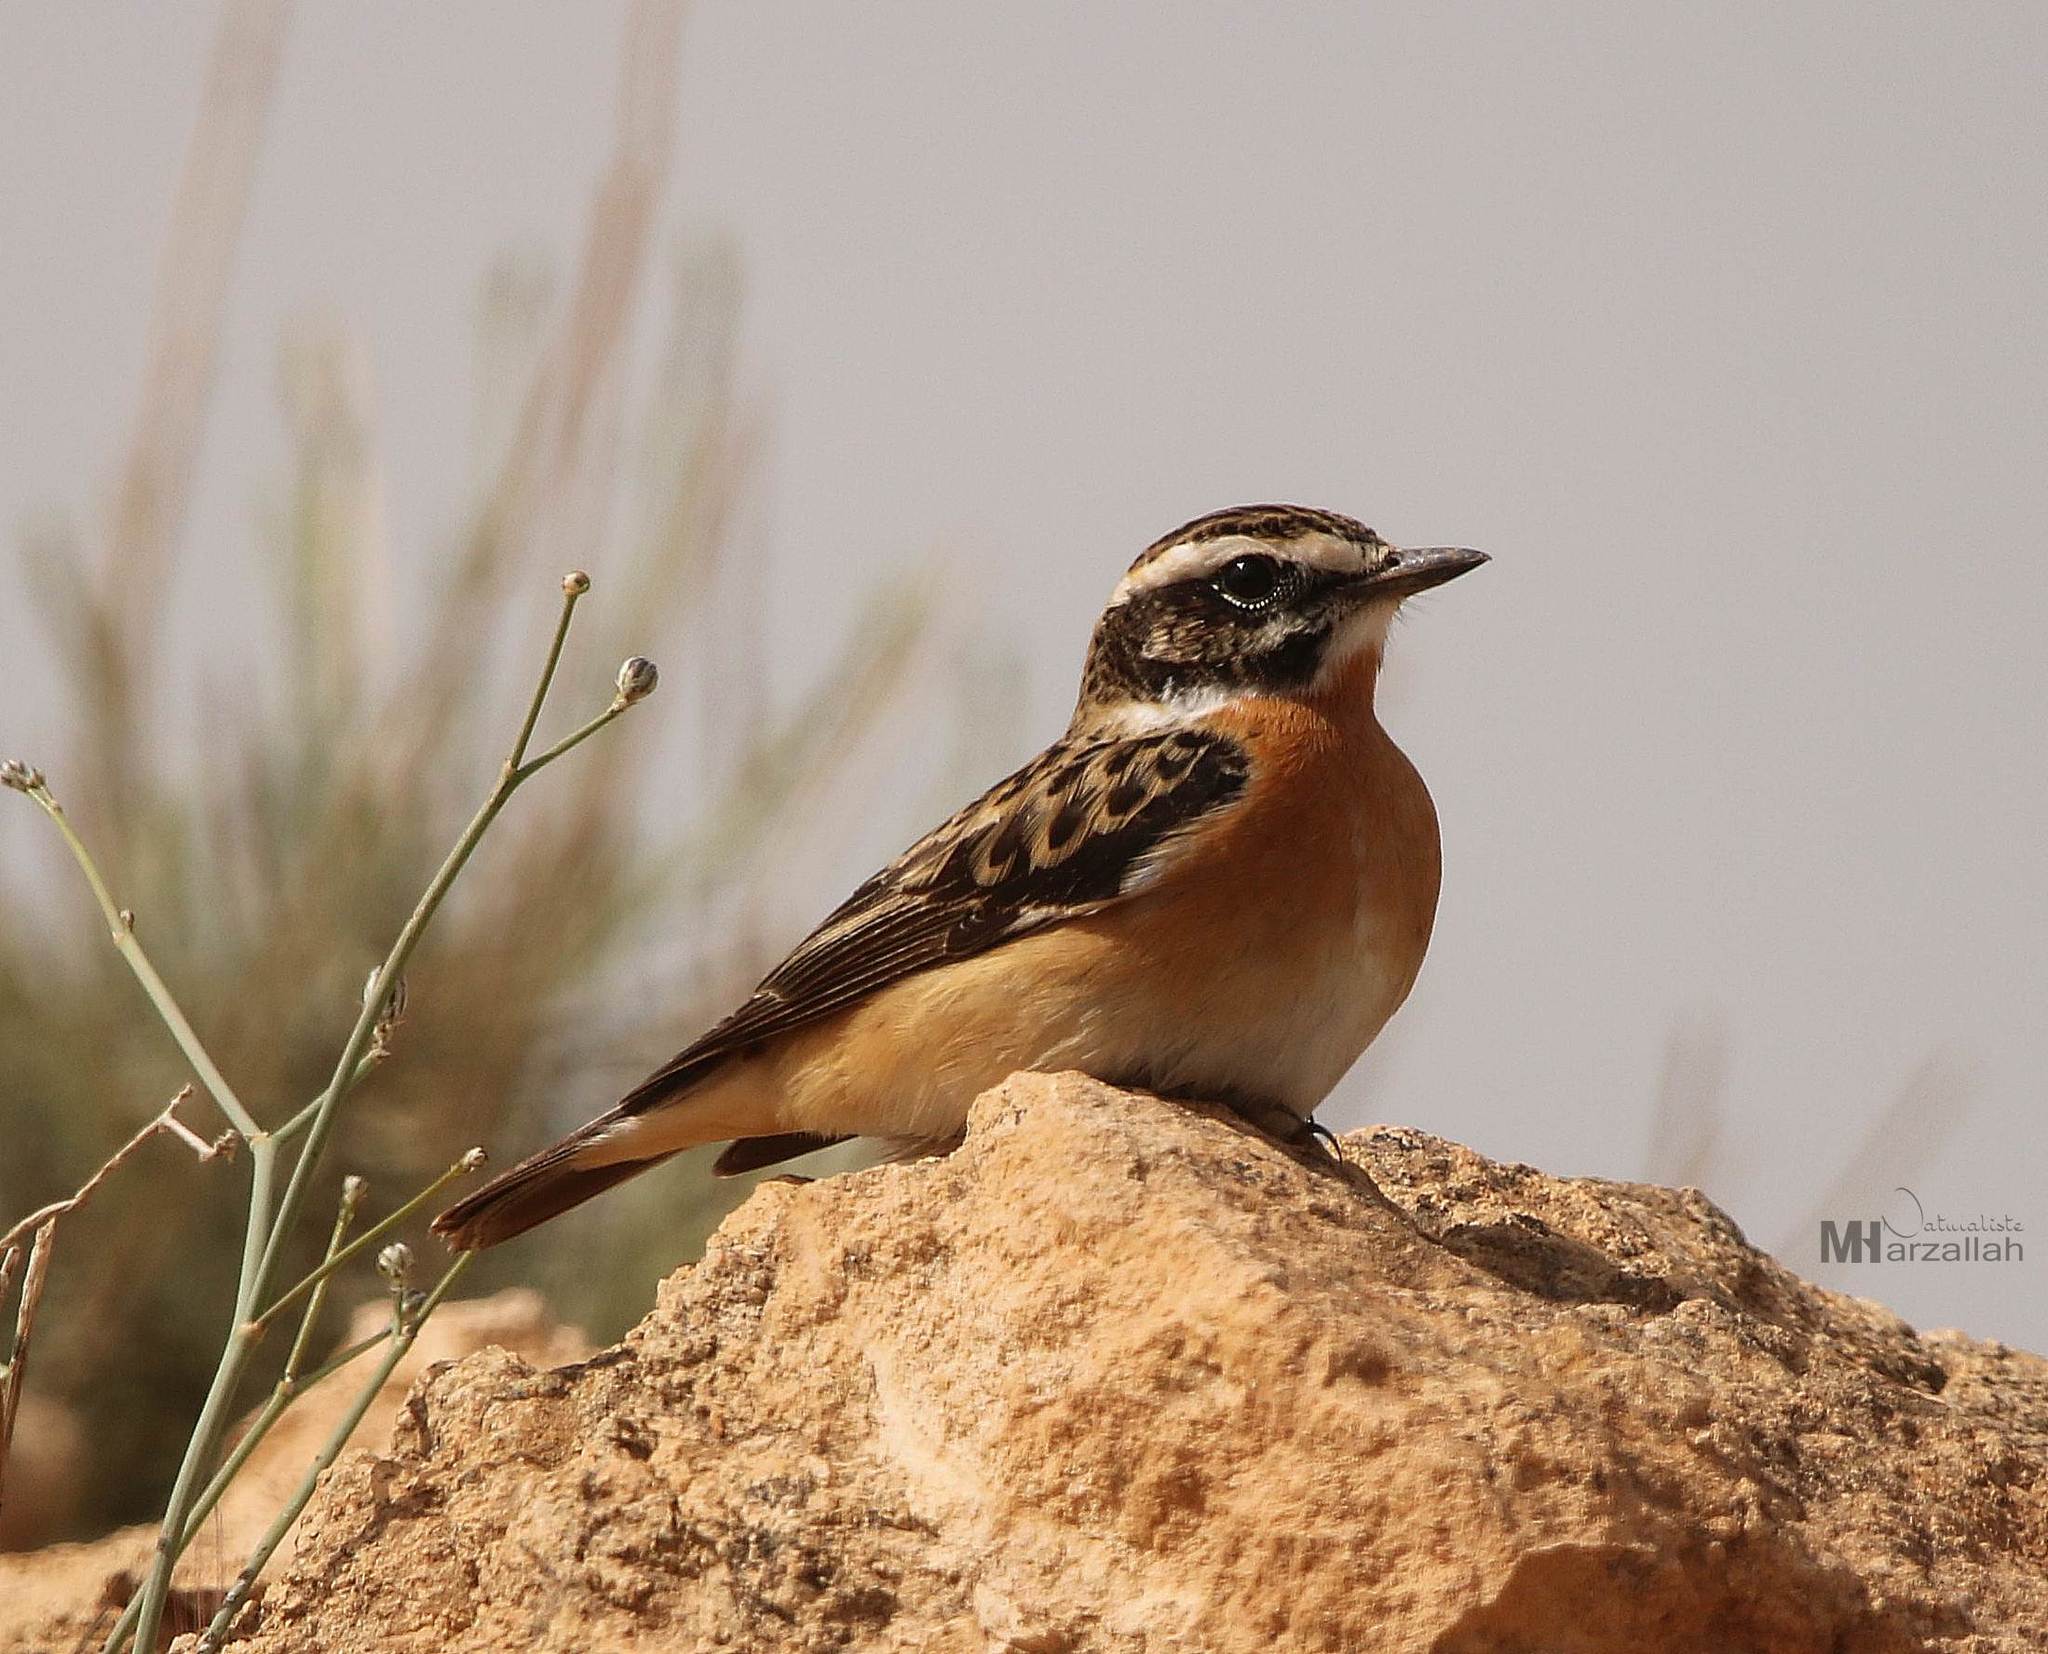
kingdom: Animalia
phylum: Chordata
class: Aves
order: Passeriformes
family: Muscicapidae
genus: Saxicola
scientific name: Saxicola rubetra
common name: Whinchat
